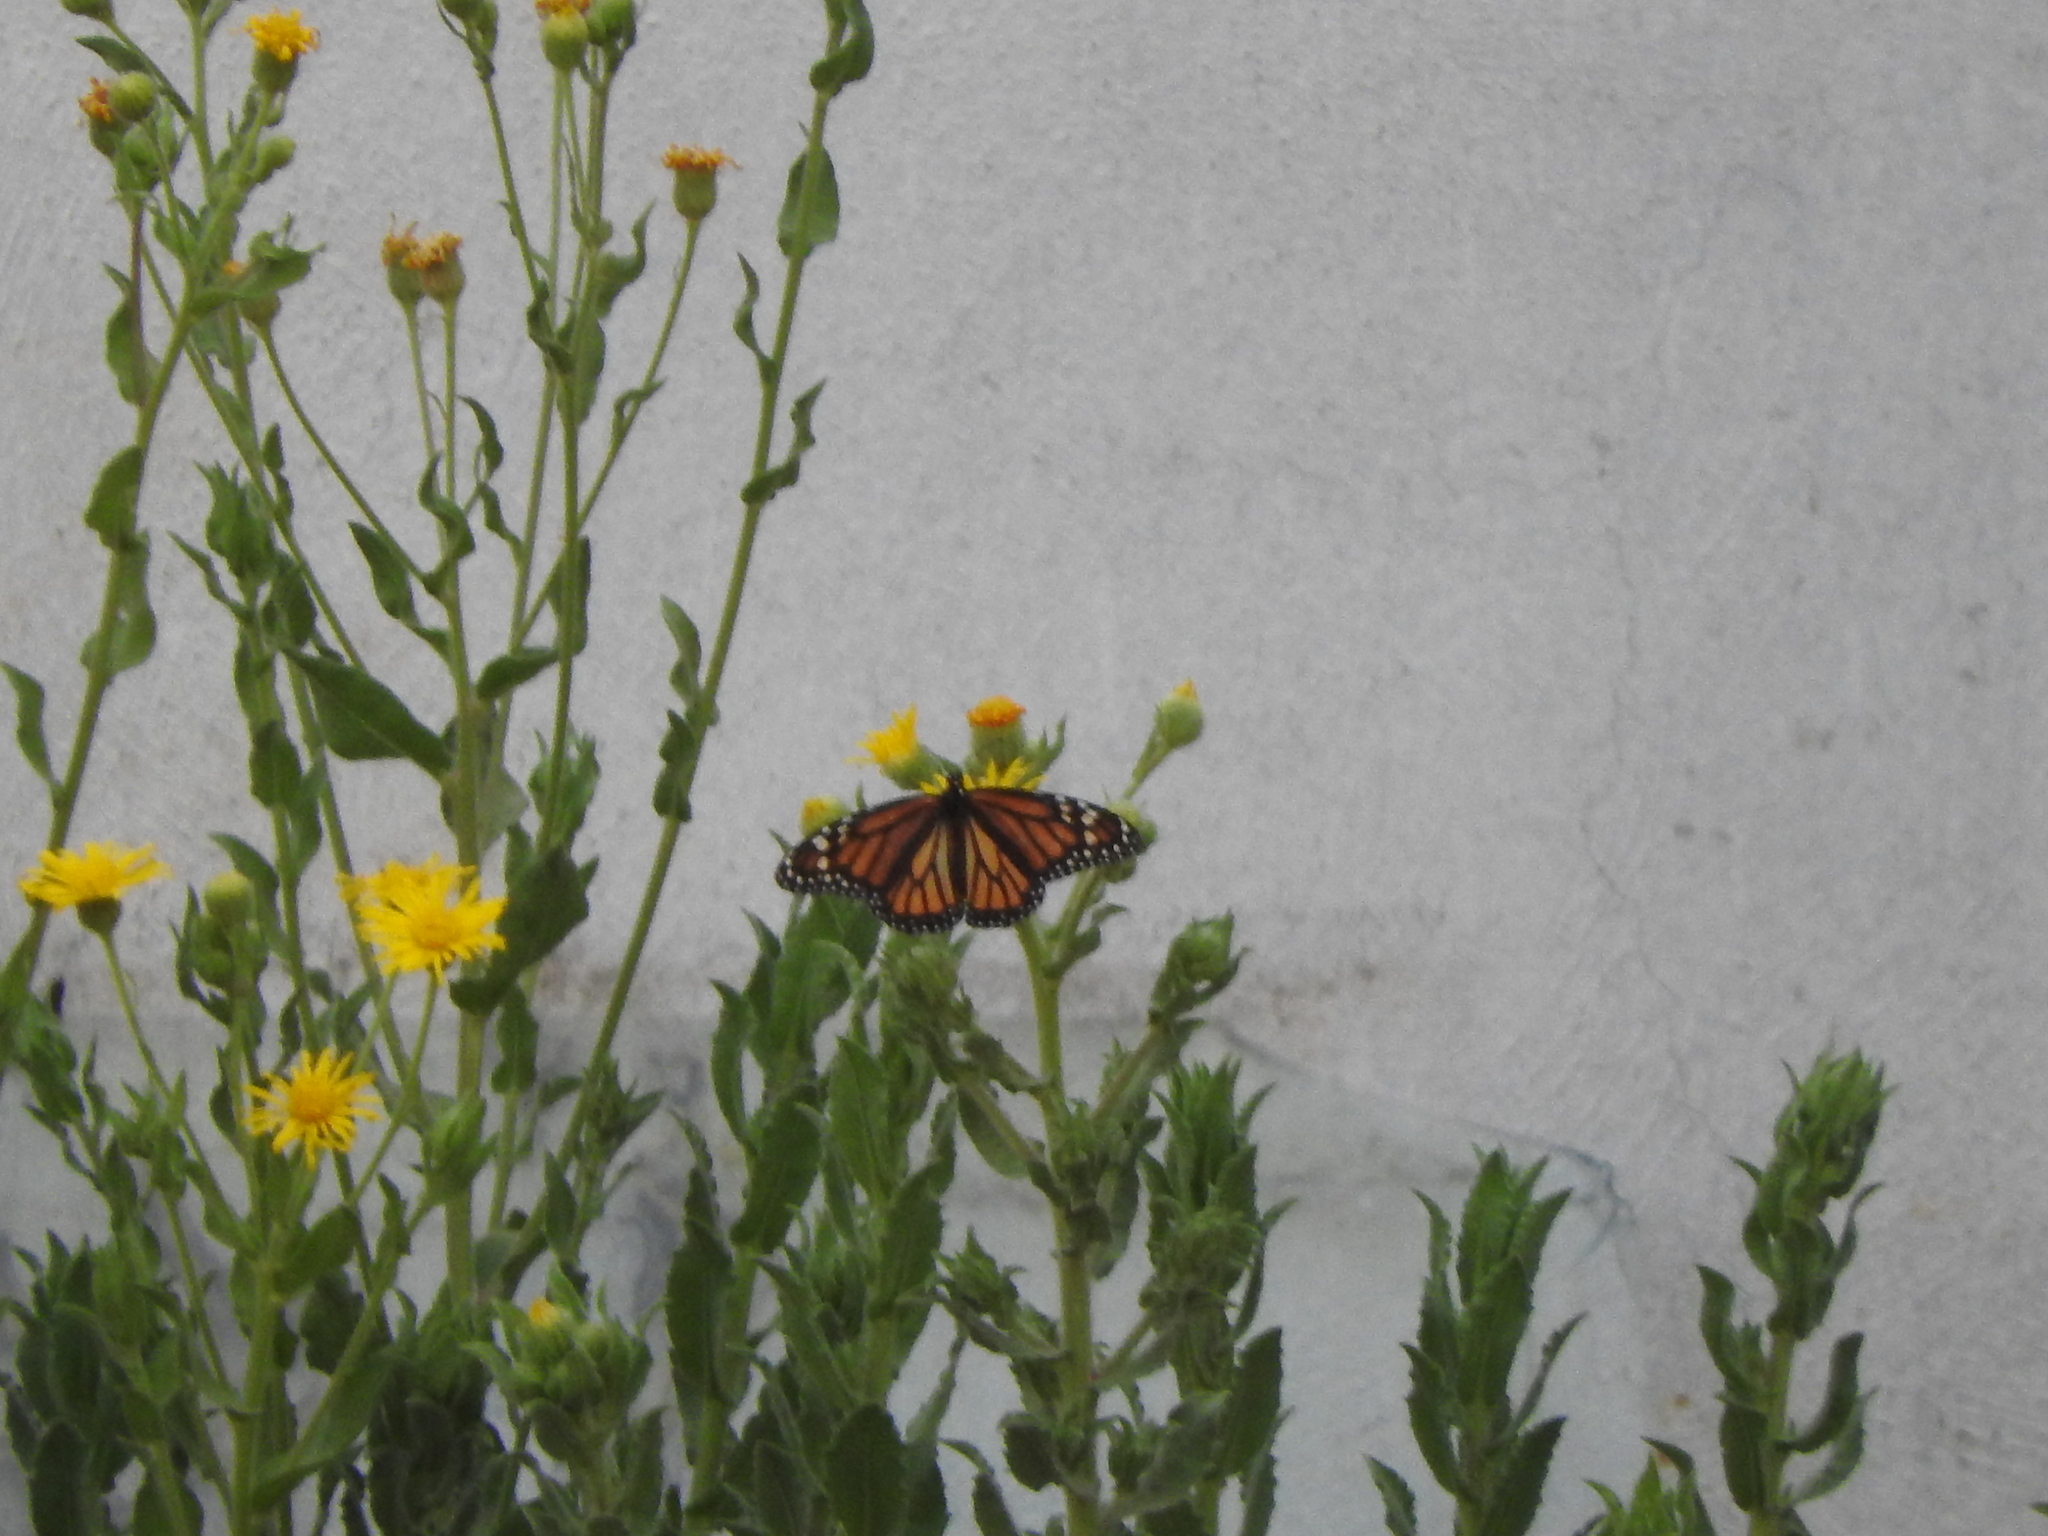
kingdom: Animalia
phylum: Arthropoda
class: Insecta
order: Lepidoptera
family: Nymphalidae
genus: Danaus
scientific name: Danaus plexippus
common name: Monarch
